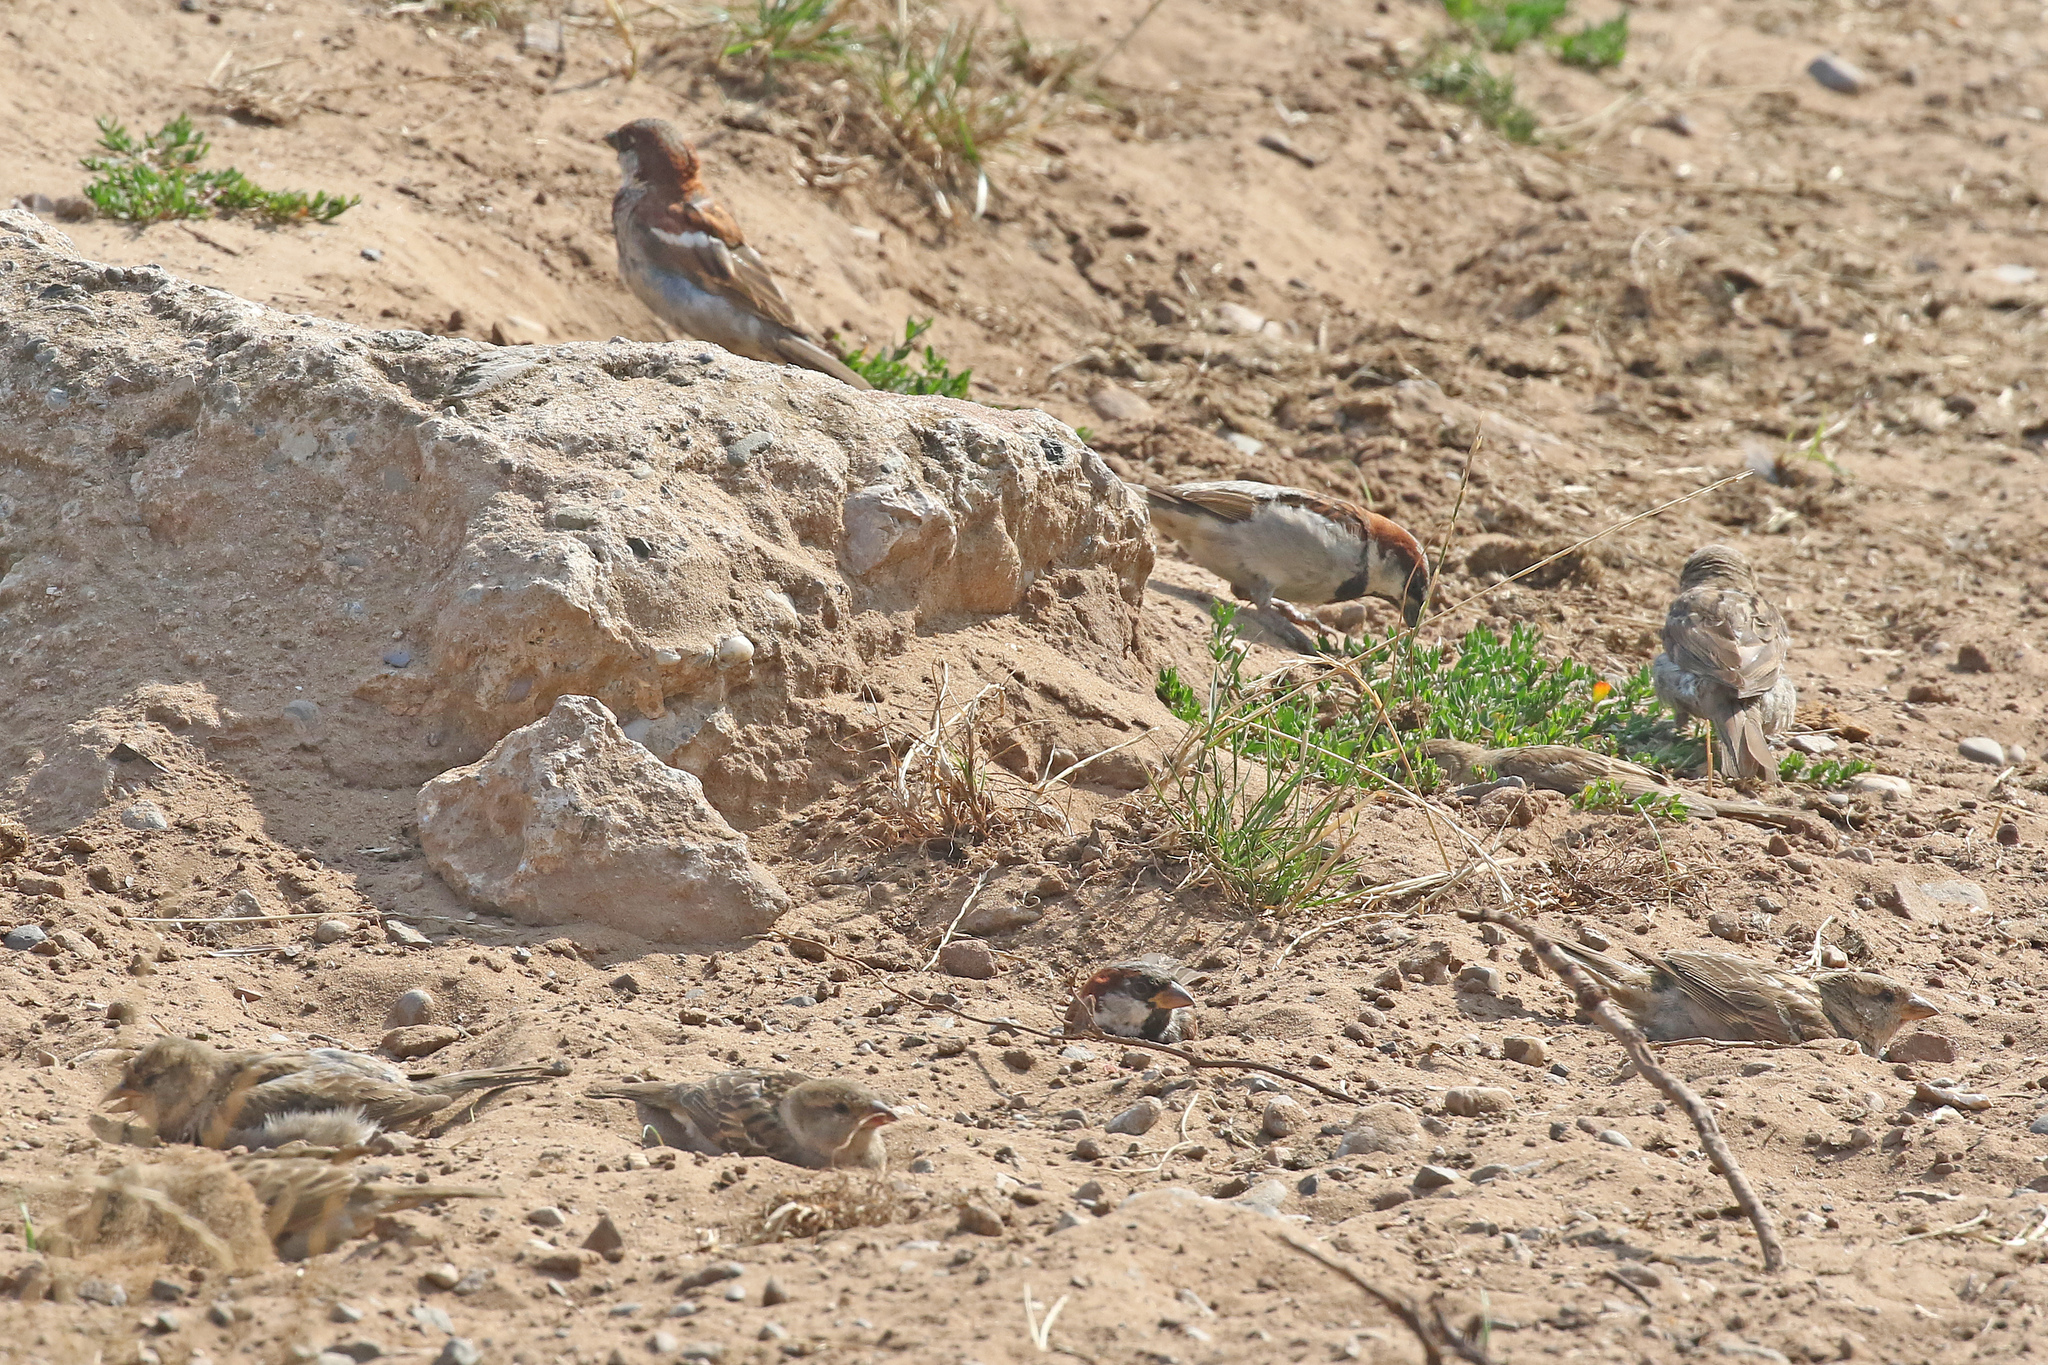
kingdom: Animalia
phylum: Chordata
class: Aves
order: Passeriformes
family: Passeridae
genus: Passer
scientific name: Passer domesticus
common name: House sparrow
